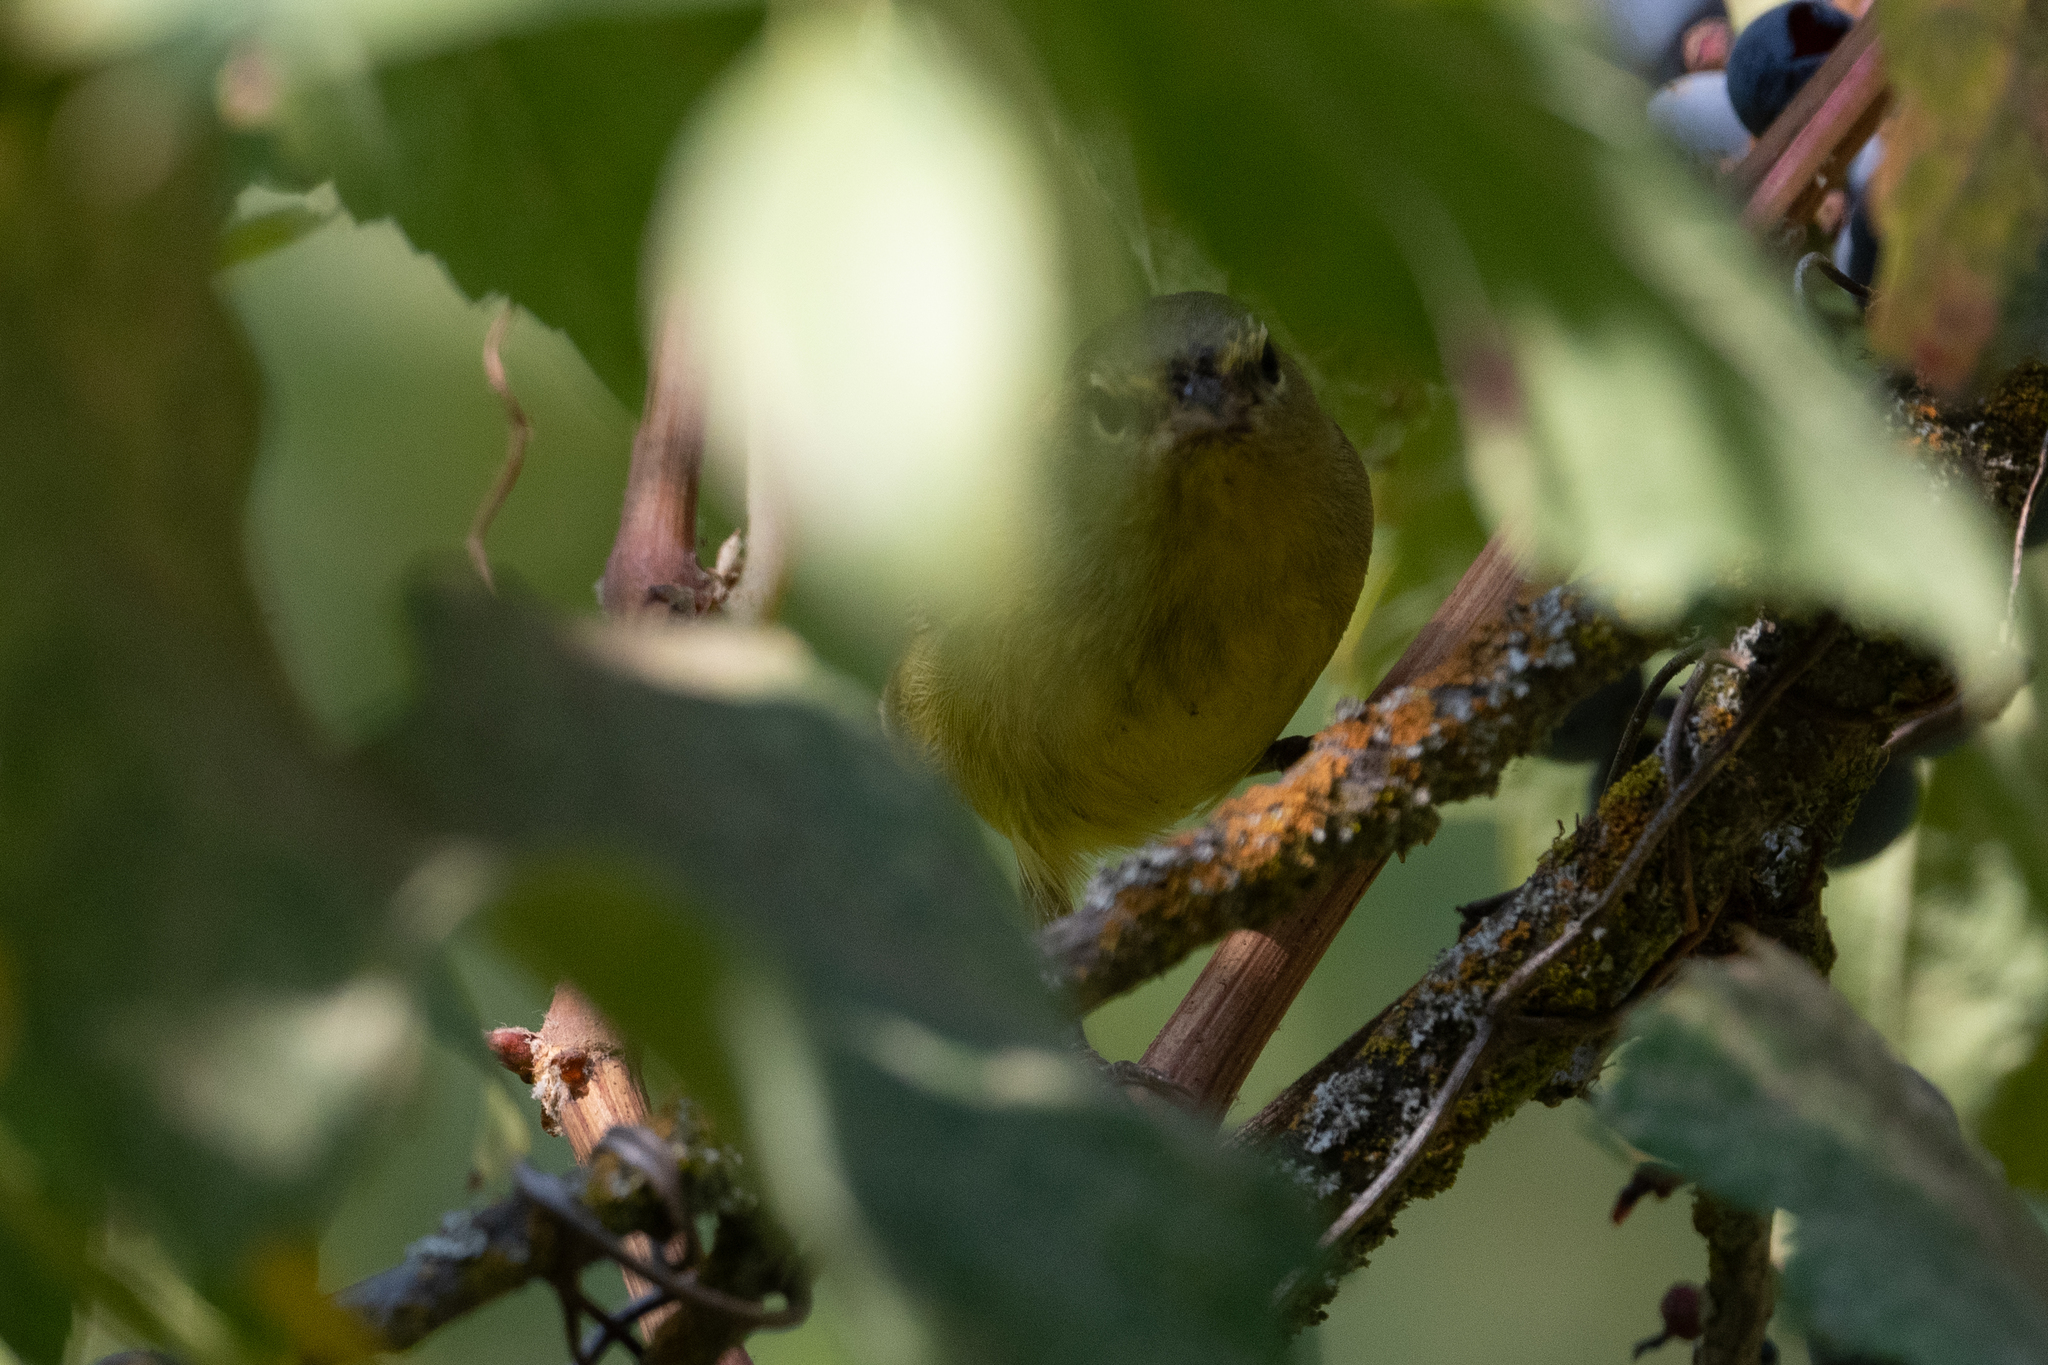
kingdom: Animalia
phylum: Chordata
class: Aves
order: Passeriformes
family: Parulidae
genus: Leiothlypis
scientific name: Leiothlypis celata
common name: Orange-crowned warbler
